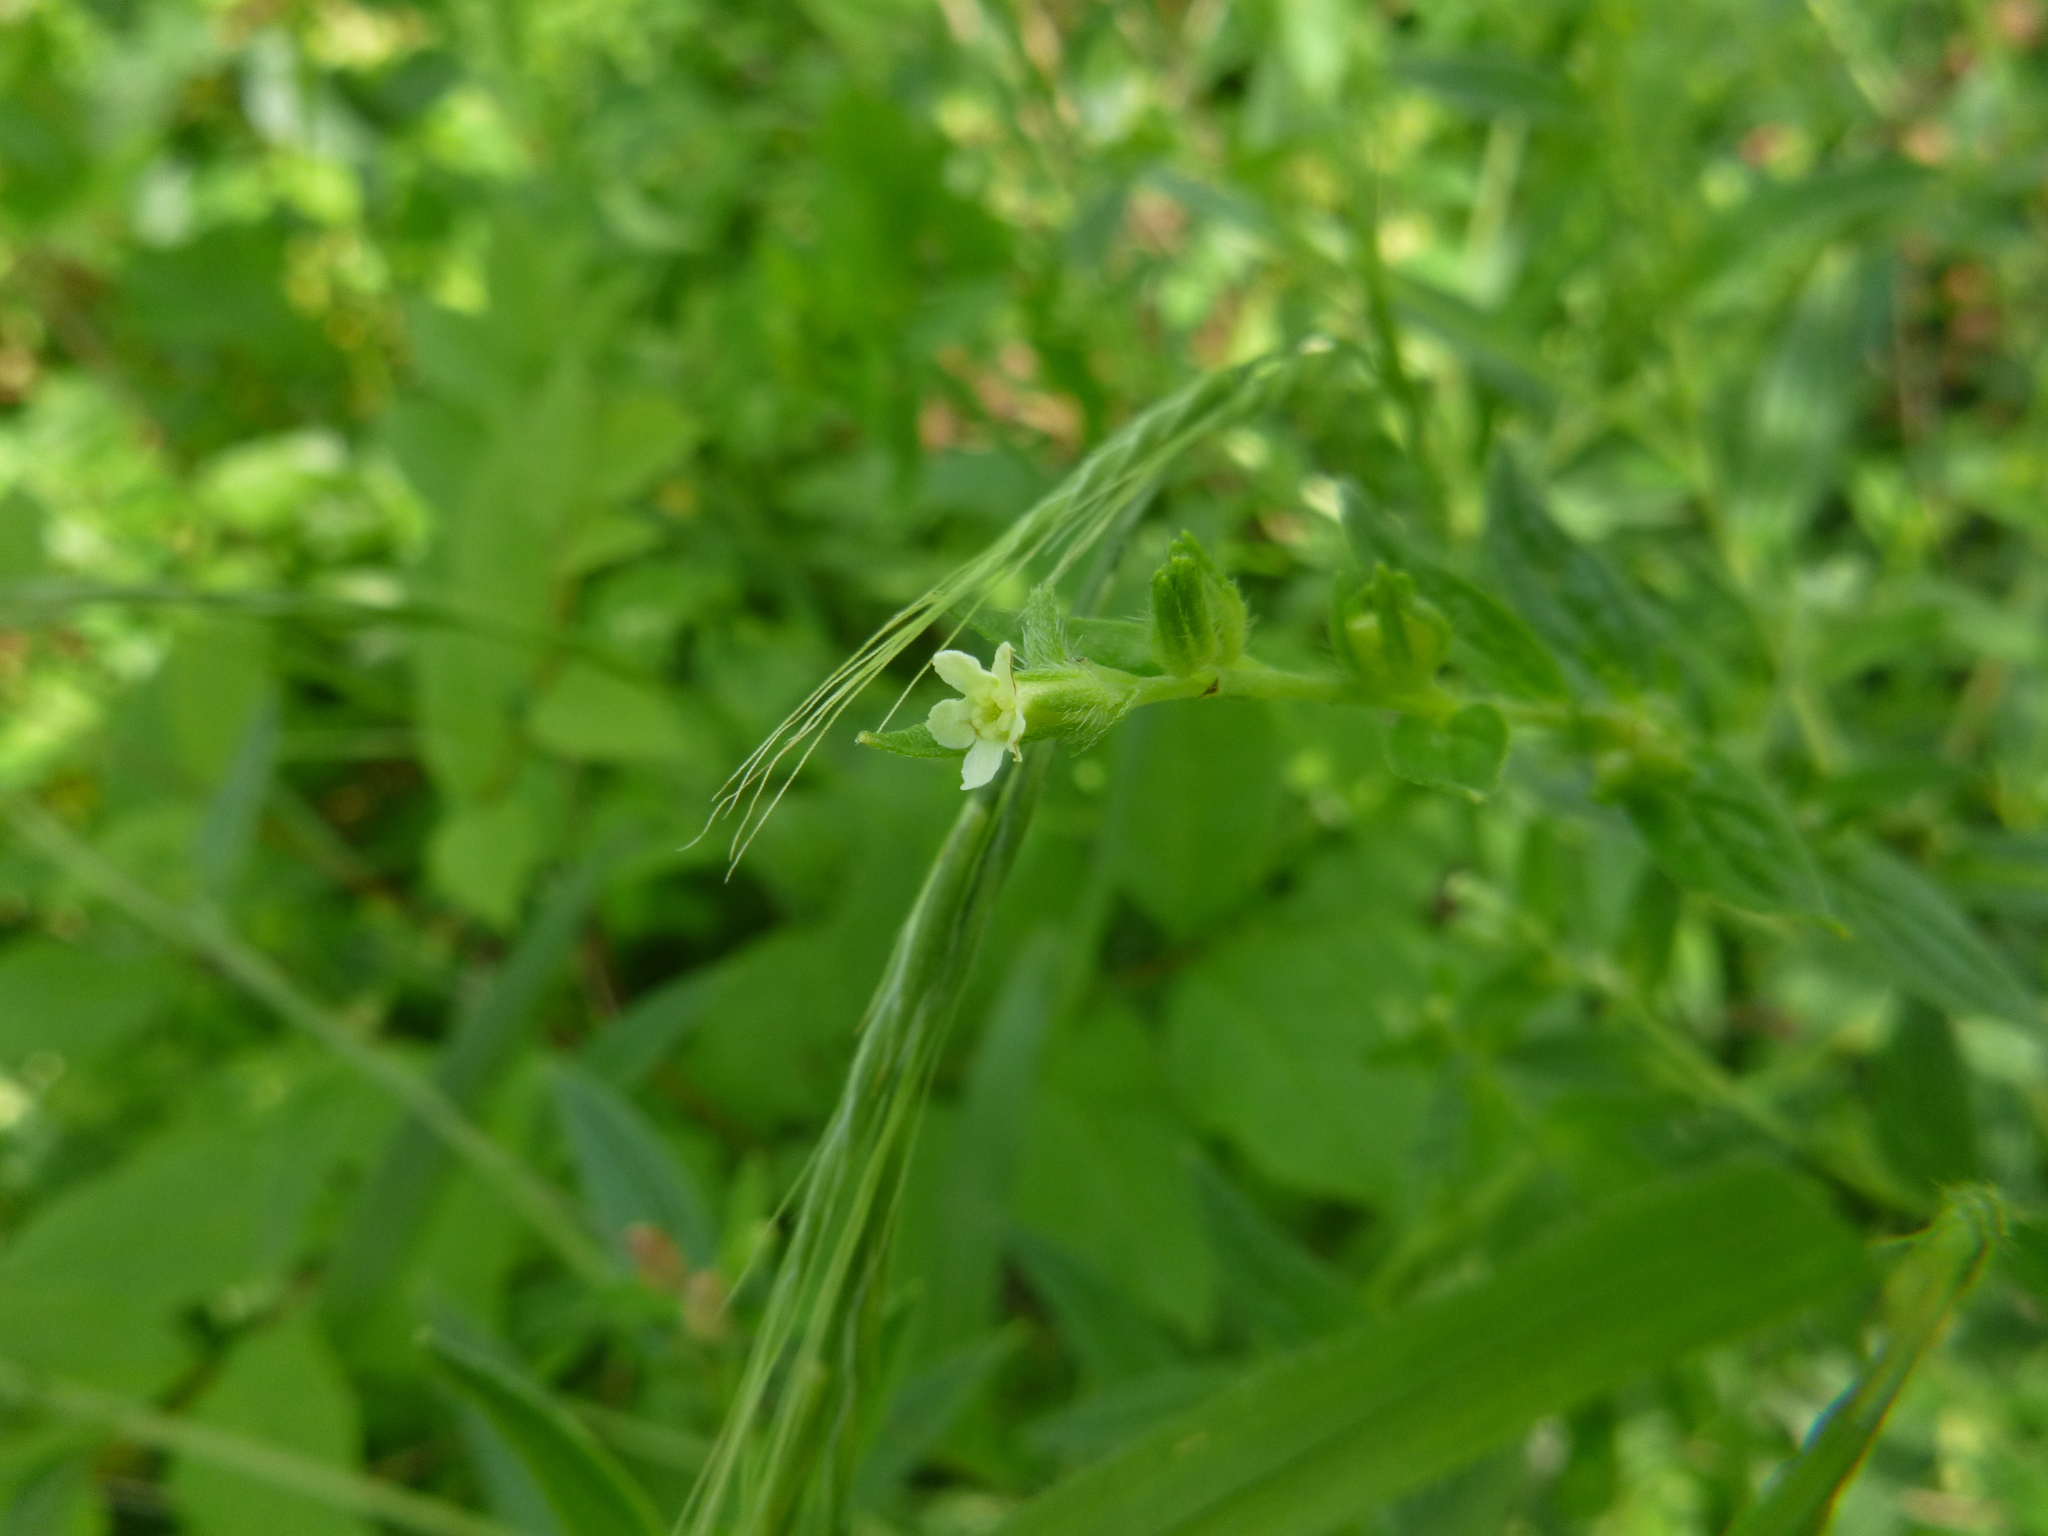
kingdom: Plantae
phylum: Tracheophyta
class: Magnoliopsida
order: Boraginales
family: Boraginaceae
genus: Lithospermum
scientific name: Lithospermum officinale
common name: Common gromwell
